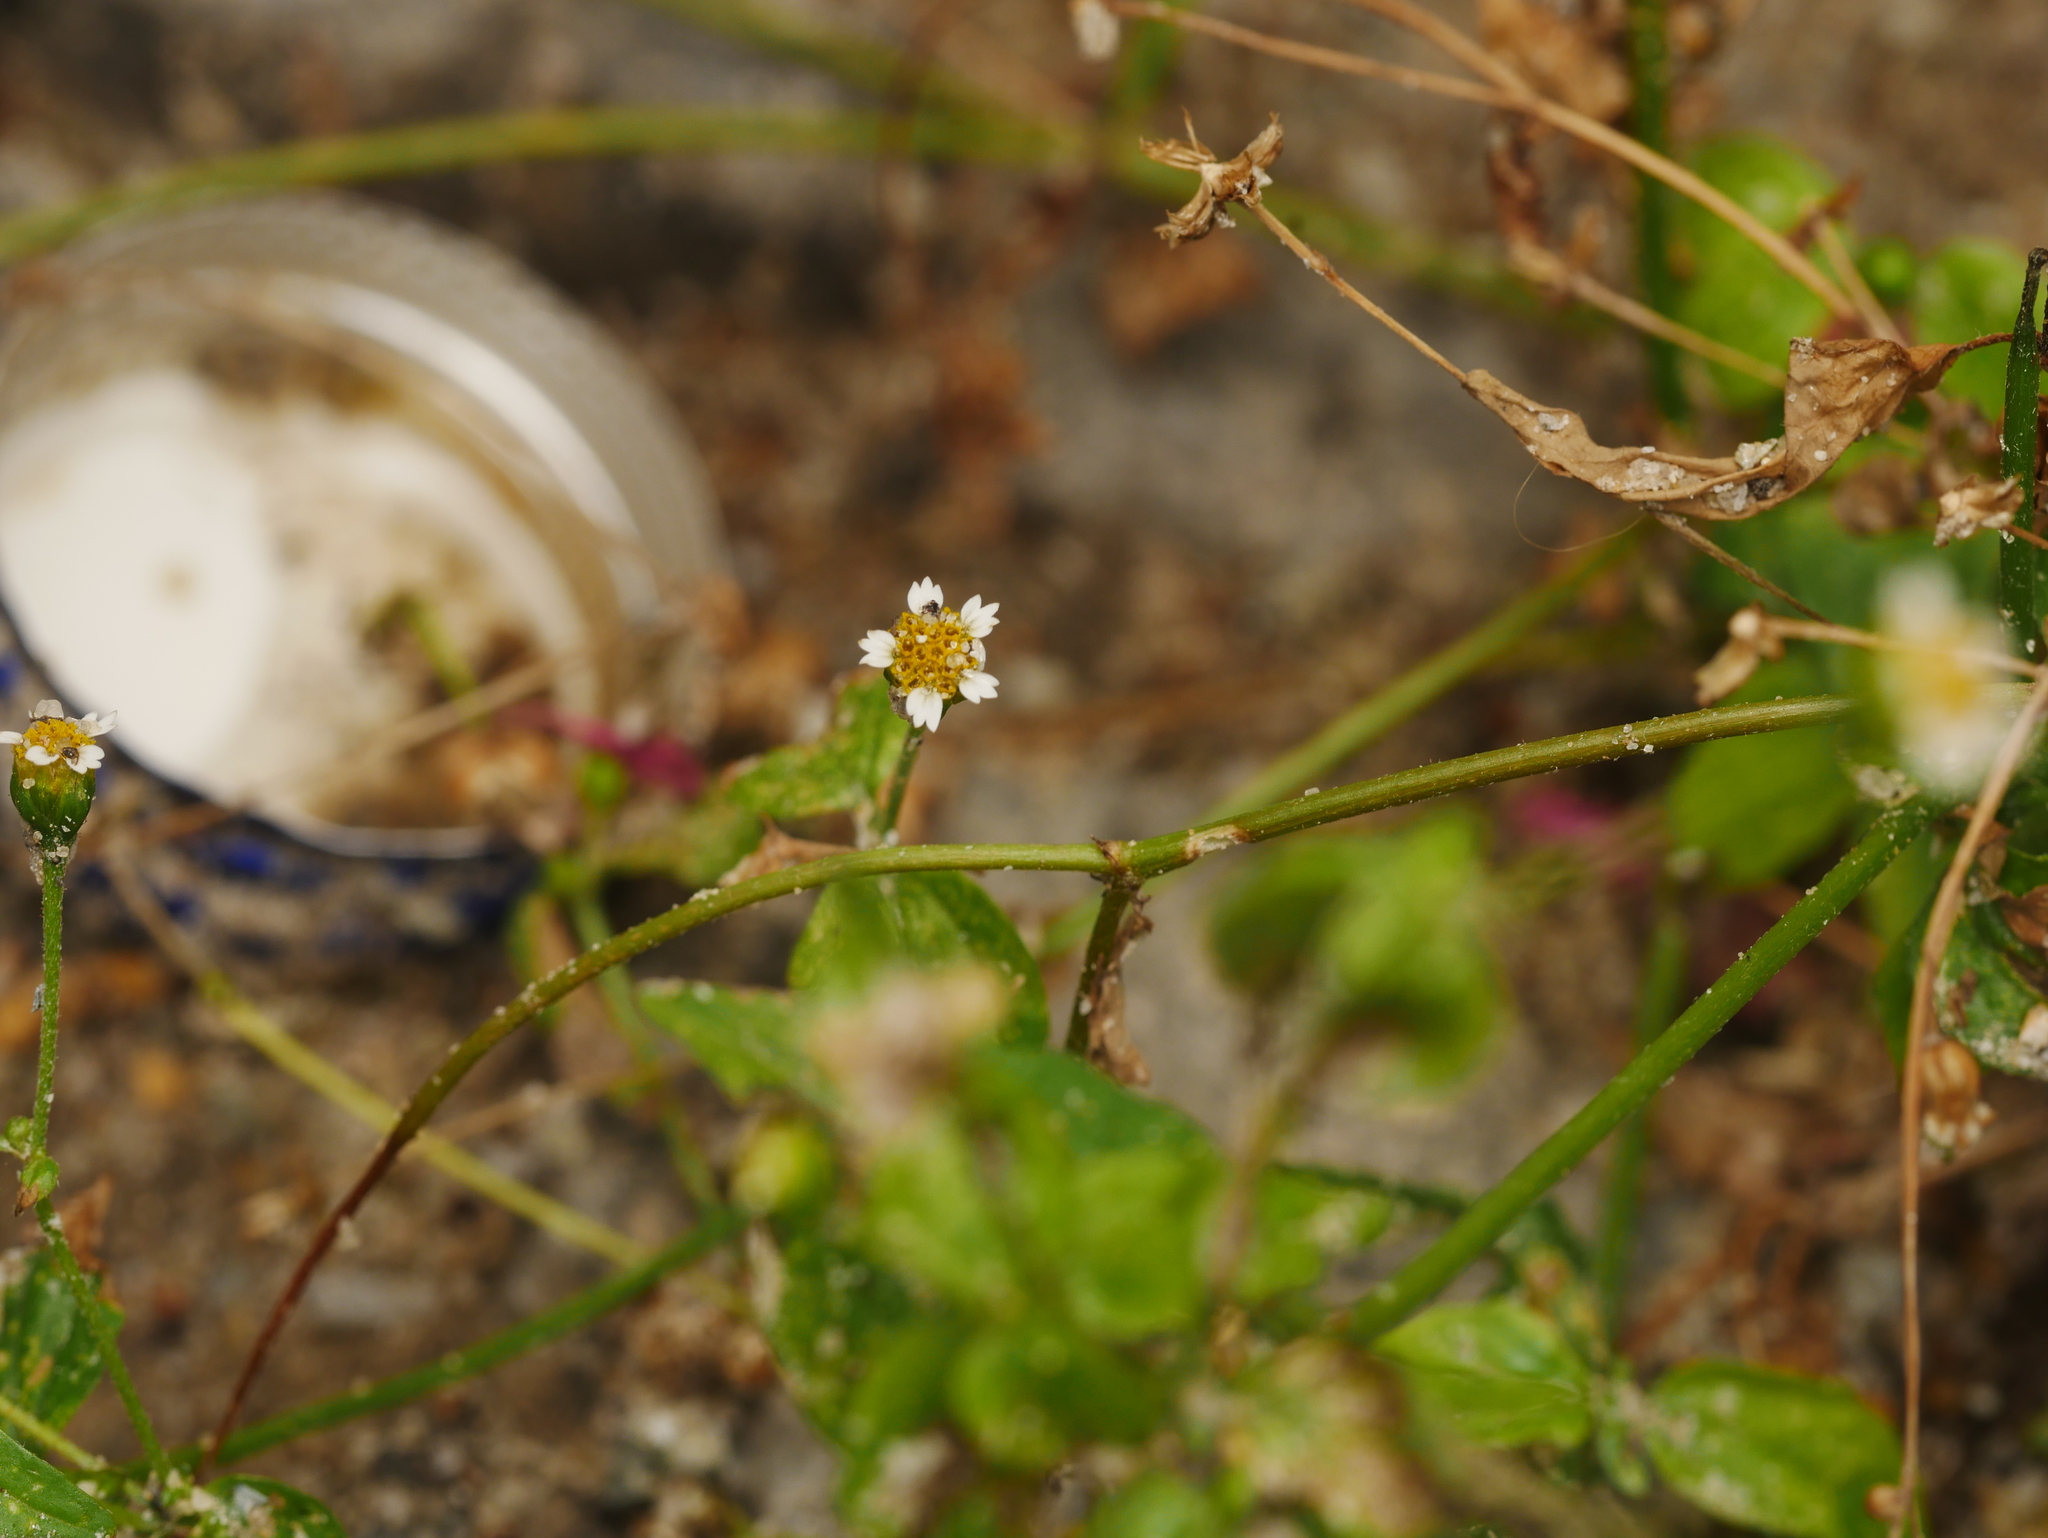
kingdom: Plantae
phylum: Tracheophyta
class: Magnoliopsida
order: Asterales
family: Asteraceae
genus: Galinsoga
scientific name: Galinsoga parviflora
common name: Gallant soldier
